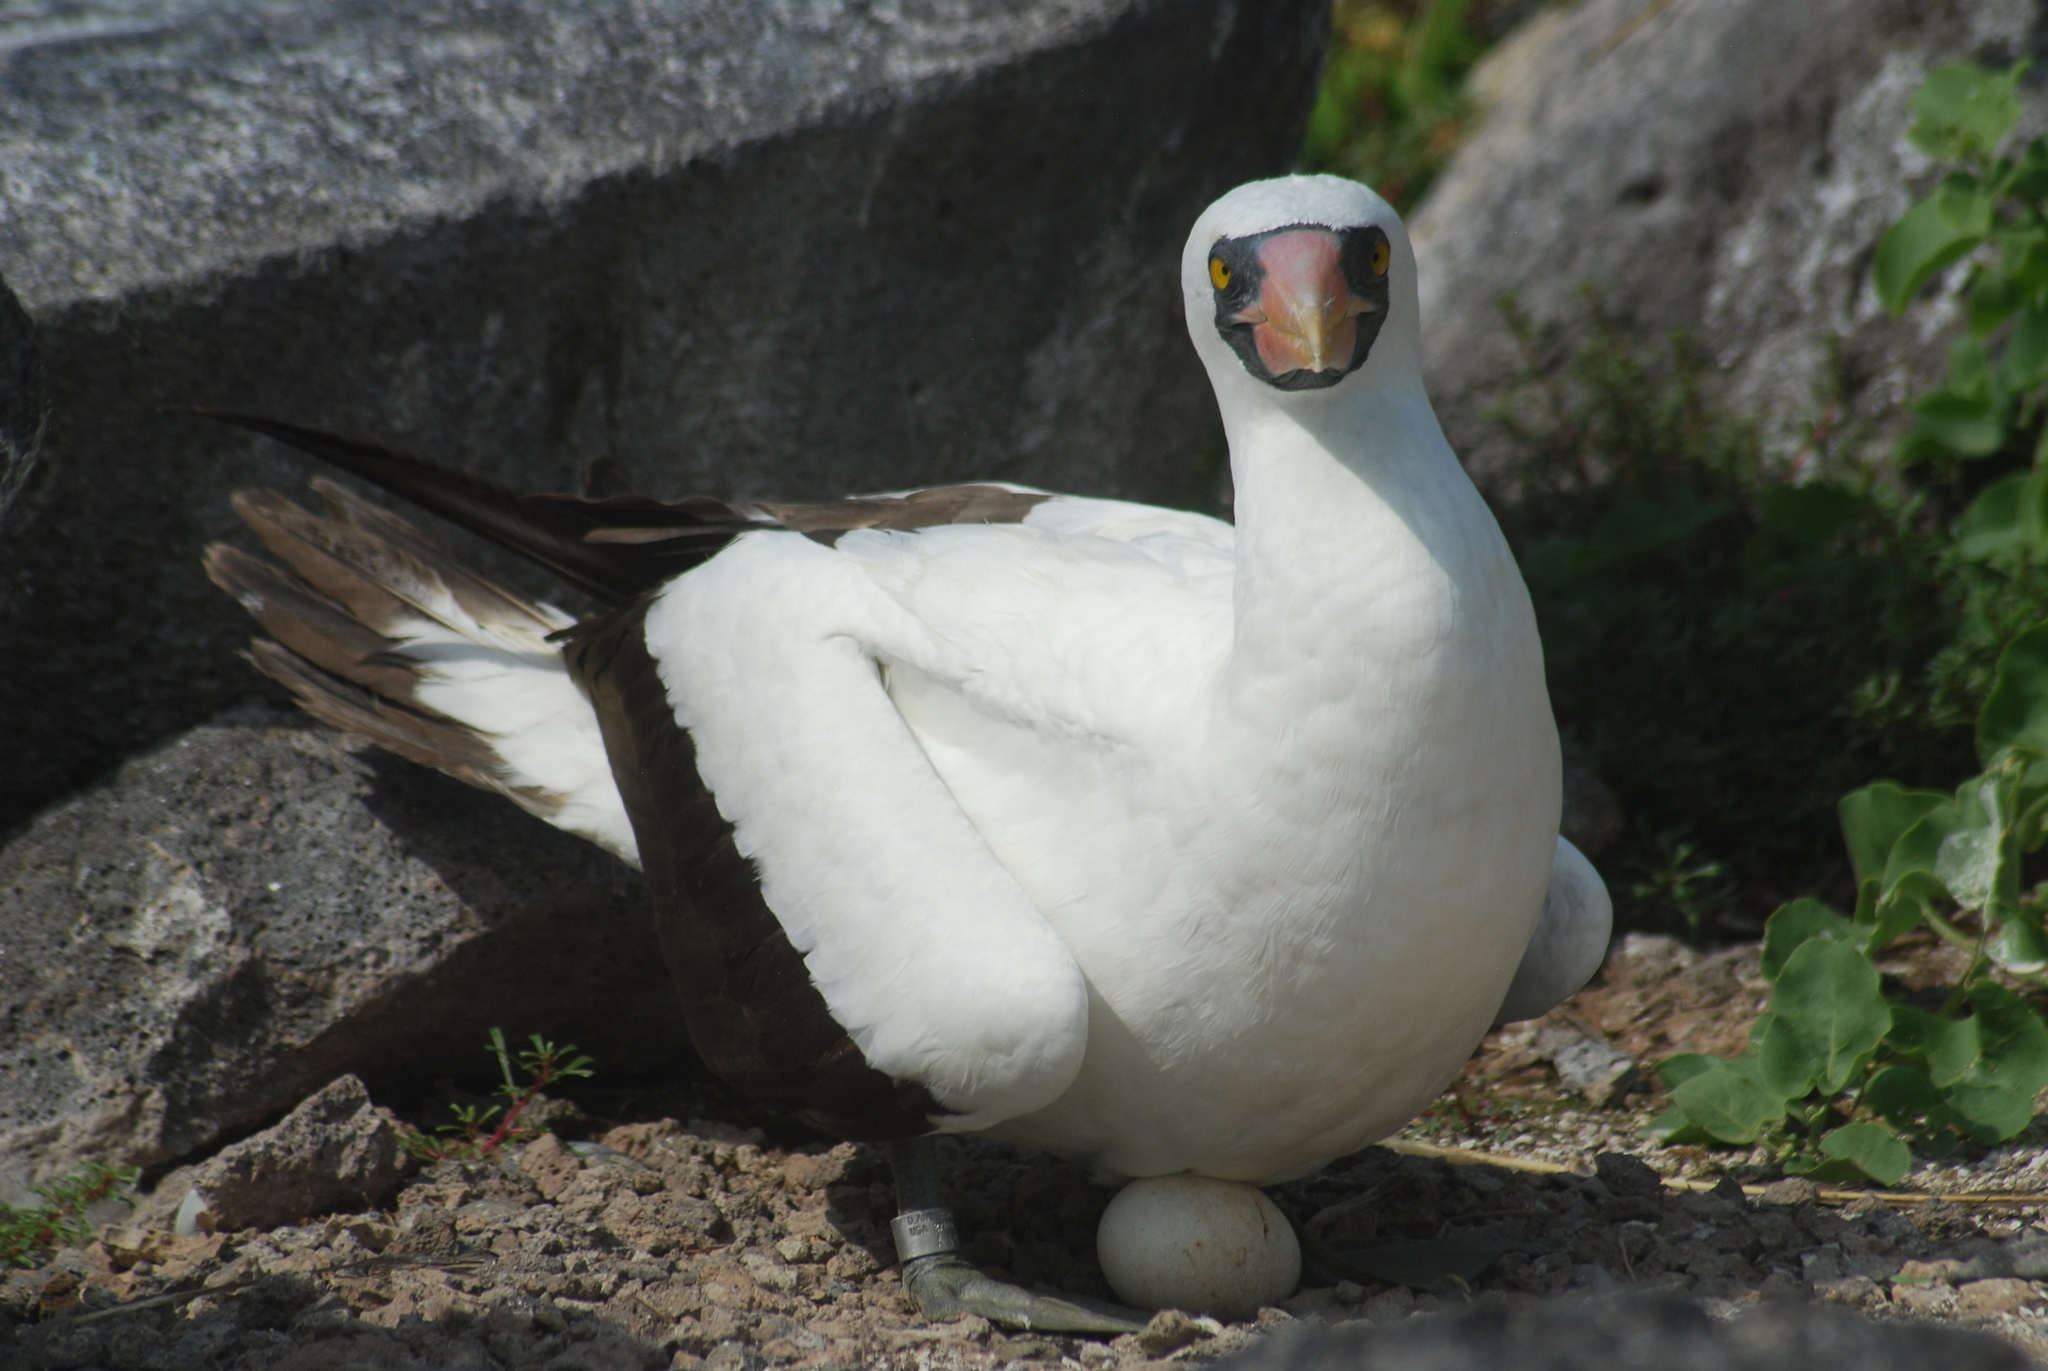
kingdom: Animalia
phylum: Chordata
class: Aves
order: Suliformes
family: Sulidae
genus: Sula
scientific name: Sula granti
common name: Nazca booby
